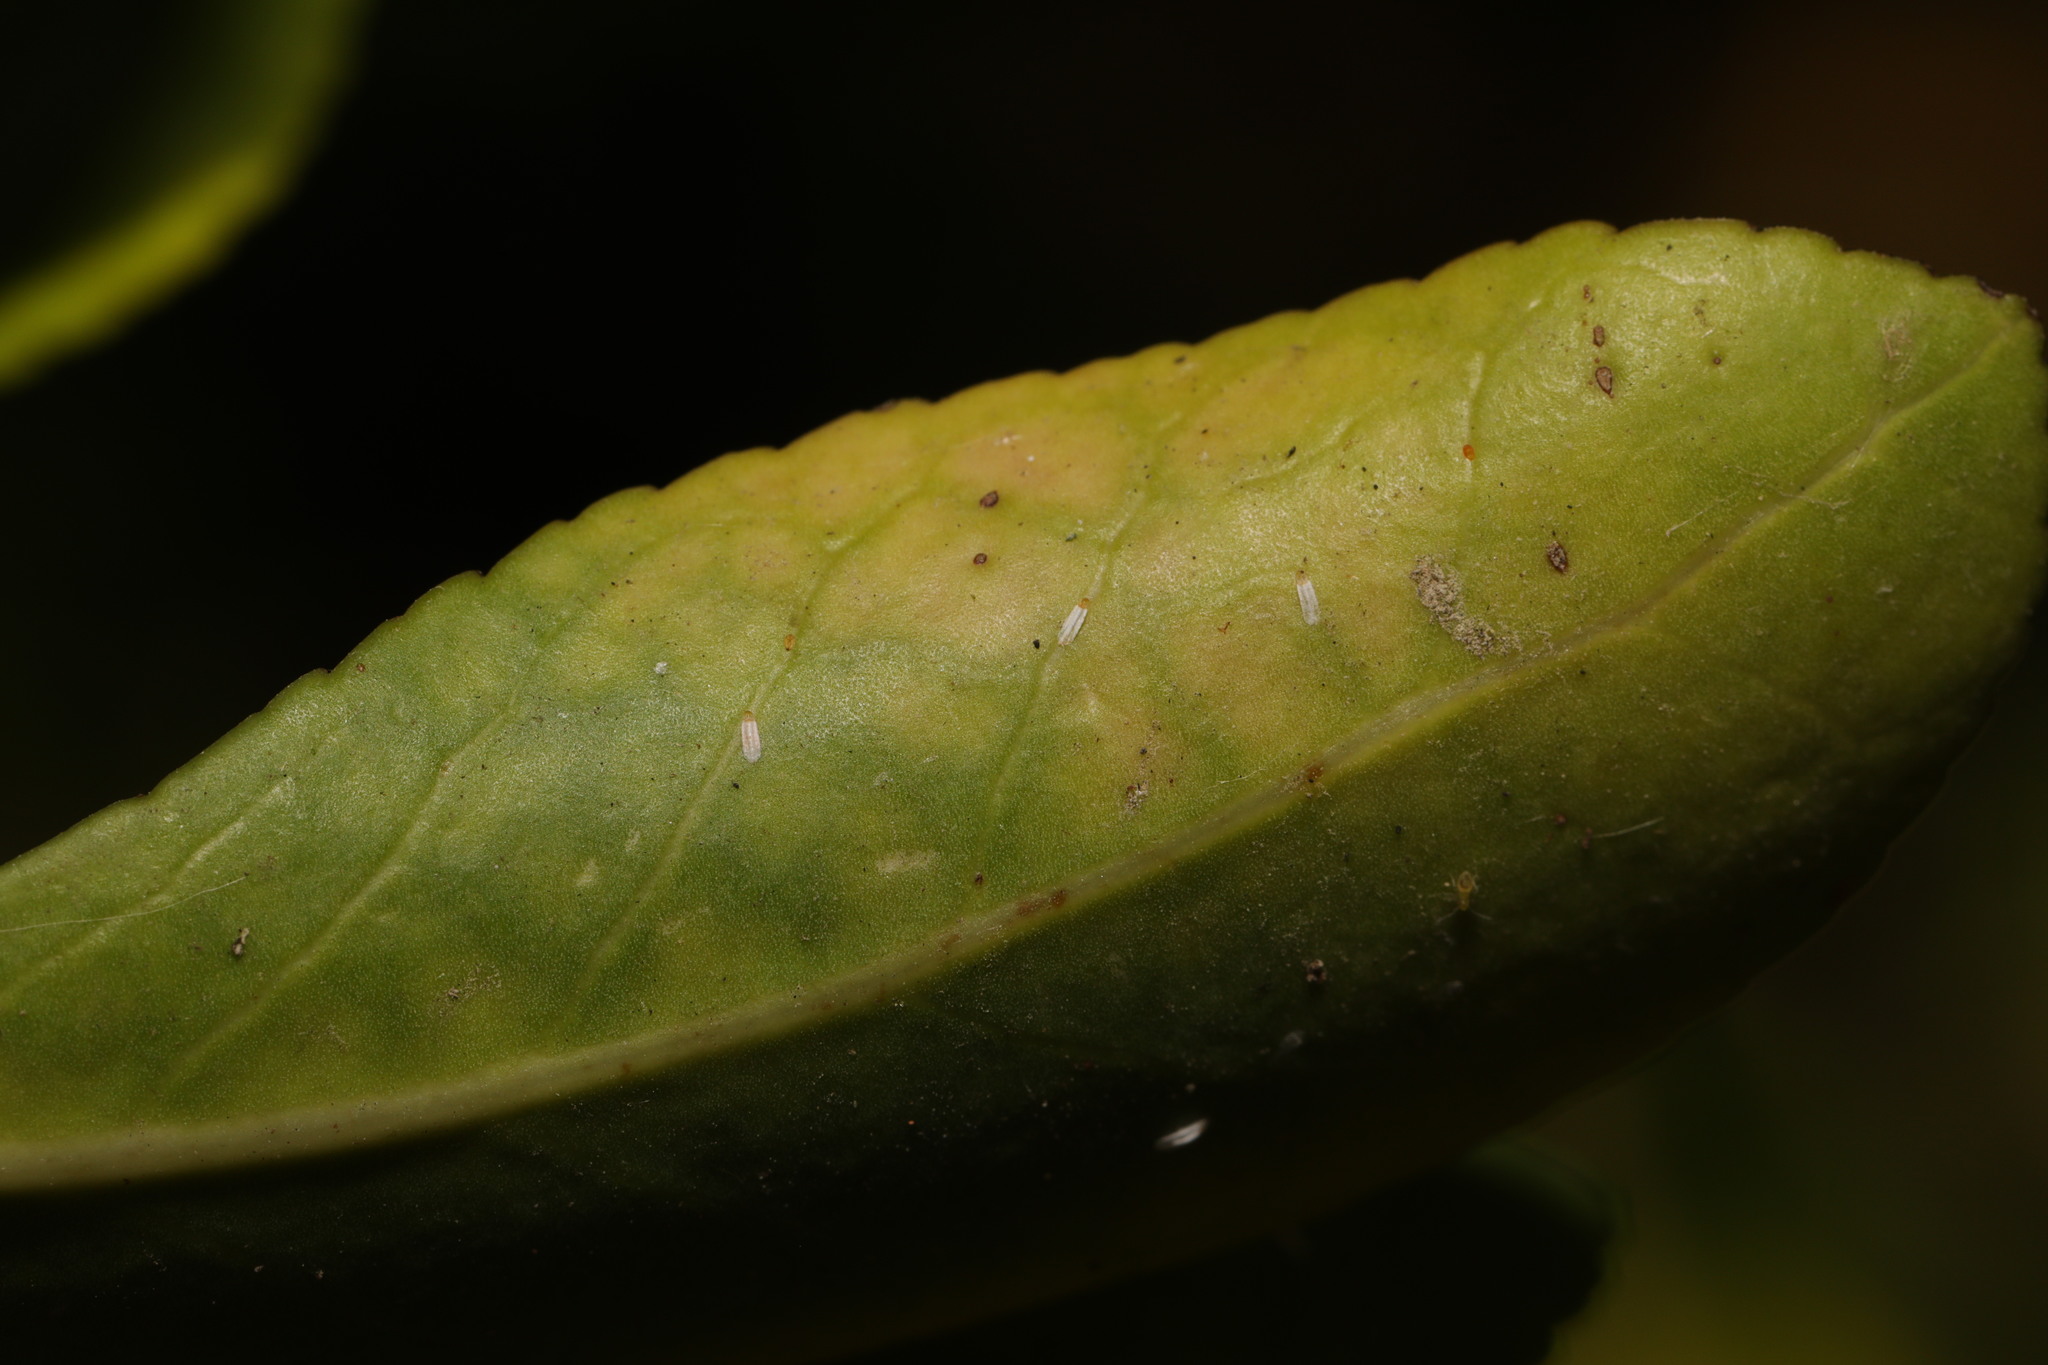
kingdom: Animalia
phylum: Arthropoda
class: Insecta
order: Hemiptera
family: Diaspididae
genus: Unaspis
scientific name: Unaspis euonymi
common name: Euonymus scale
